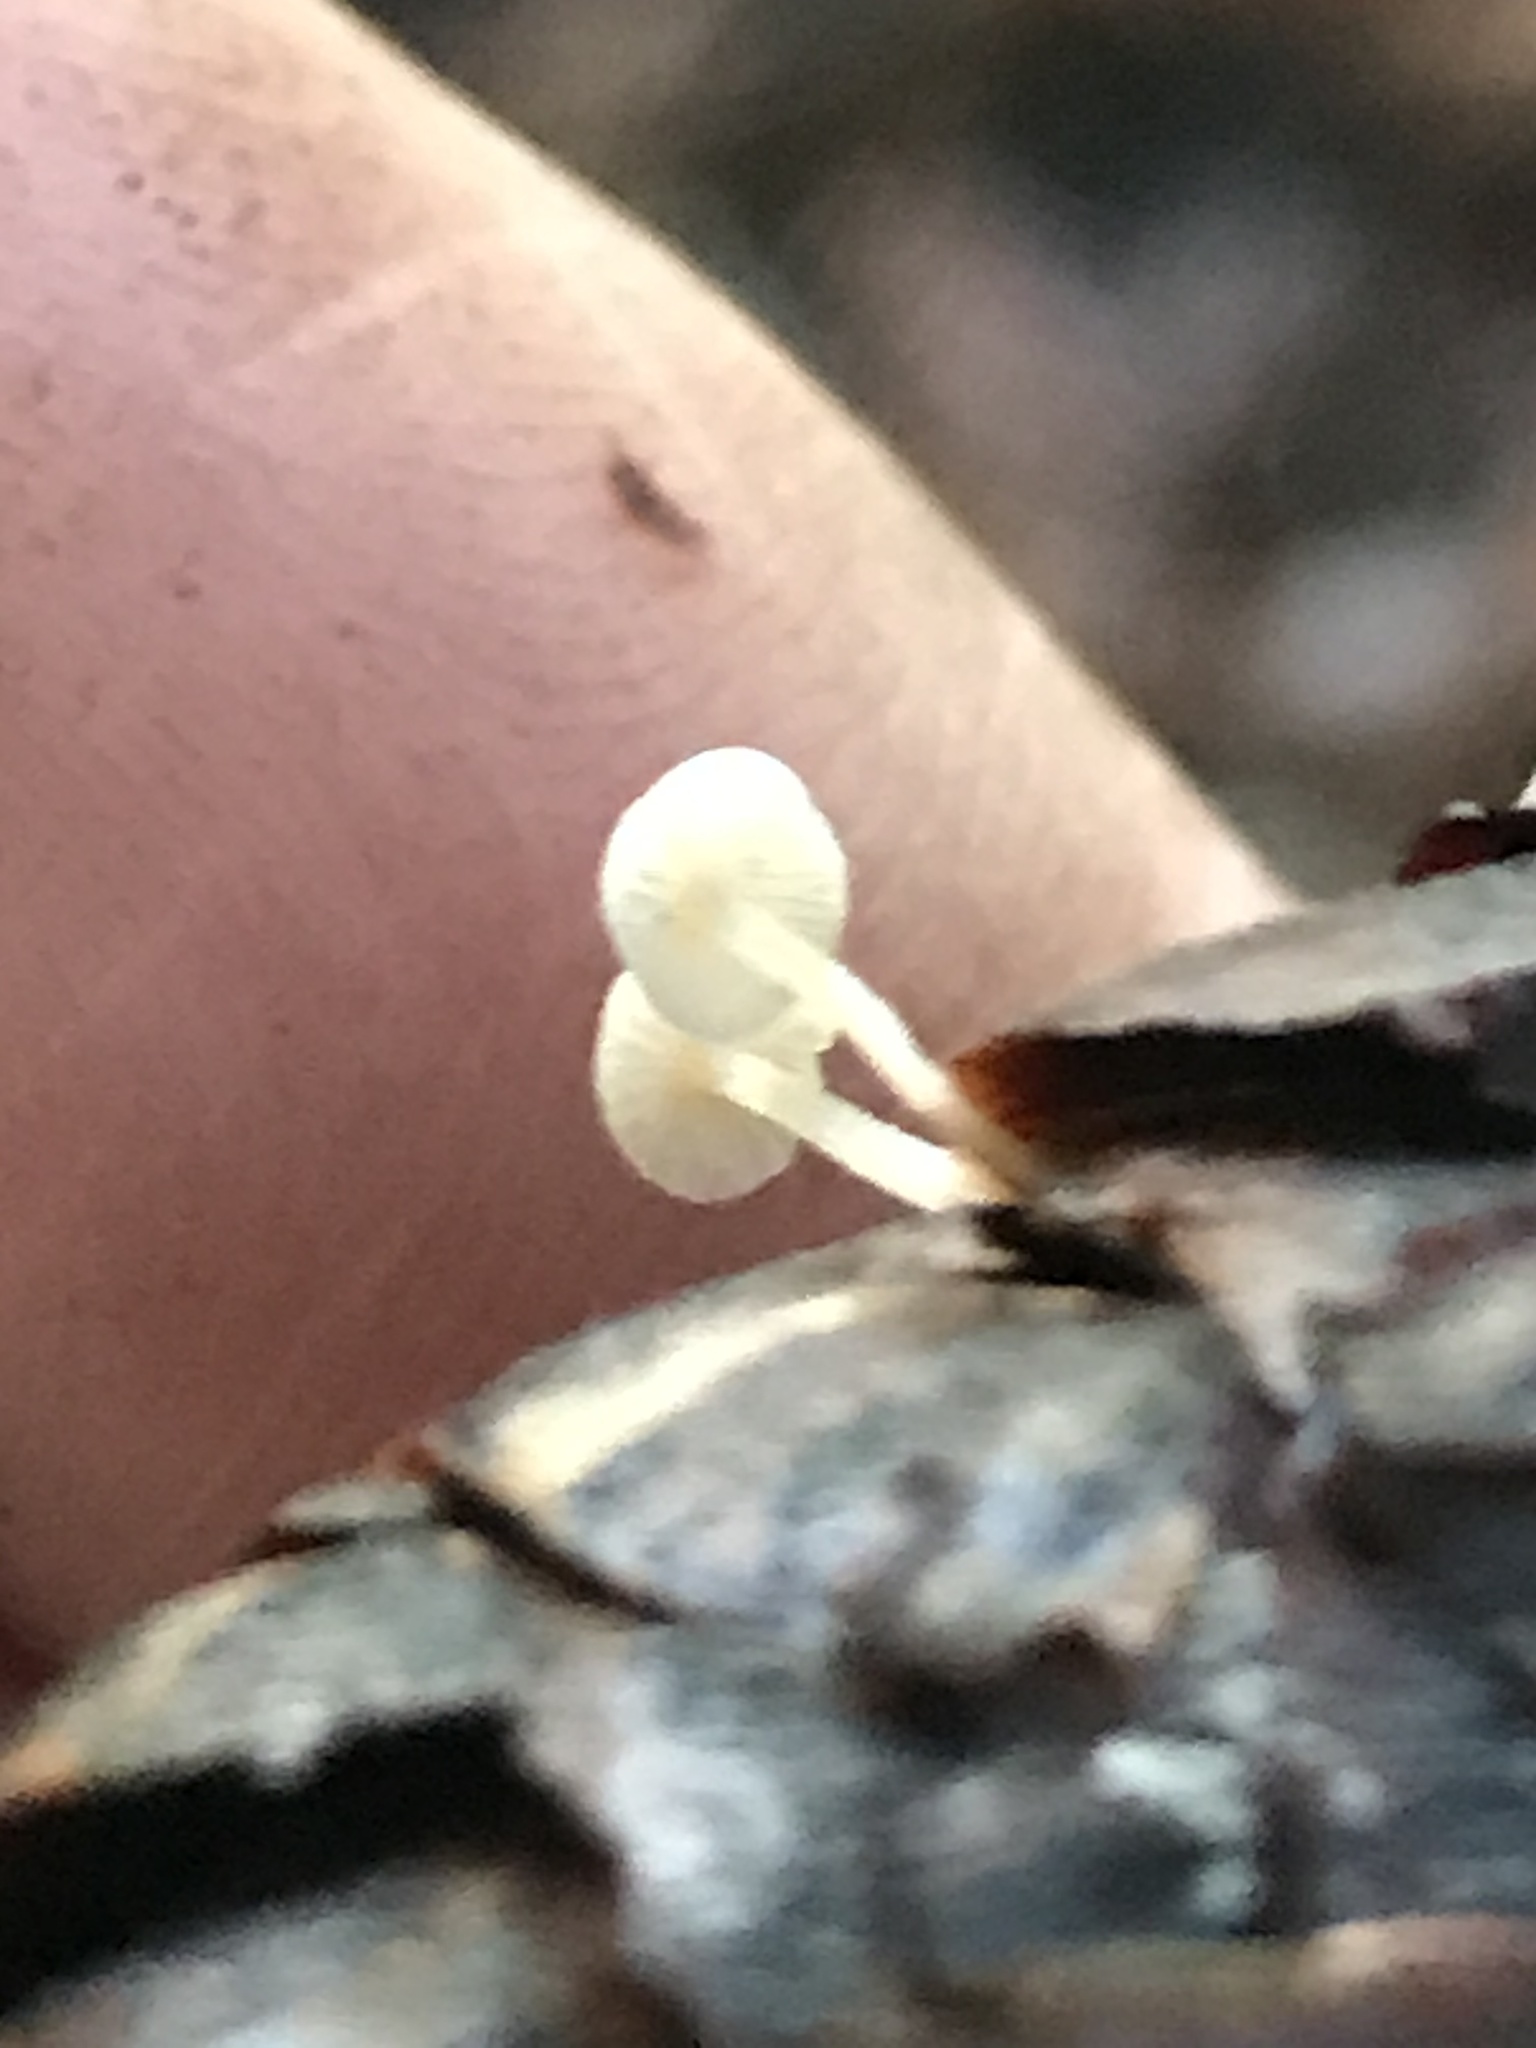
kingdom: Fungi
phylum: Basidiomycota
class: Agaricomycetes
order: Agaricales
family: Physalacriaceae
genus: Strobilurus
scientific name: Strobilurus trullisatus
